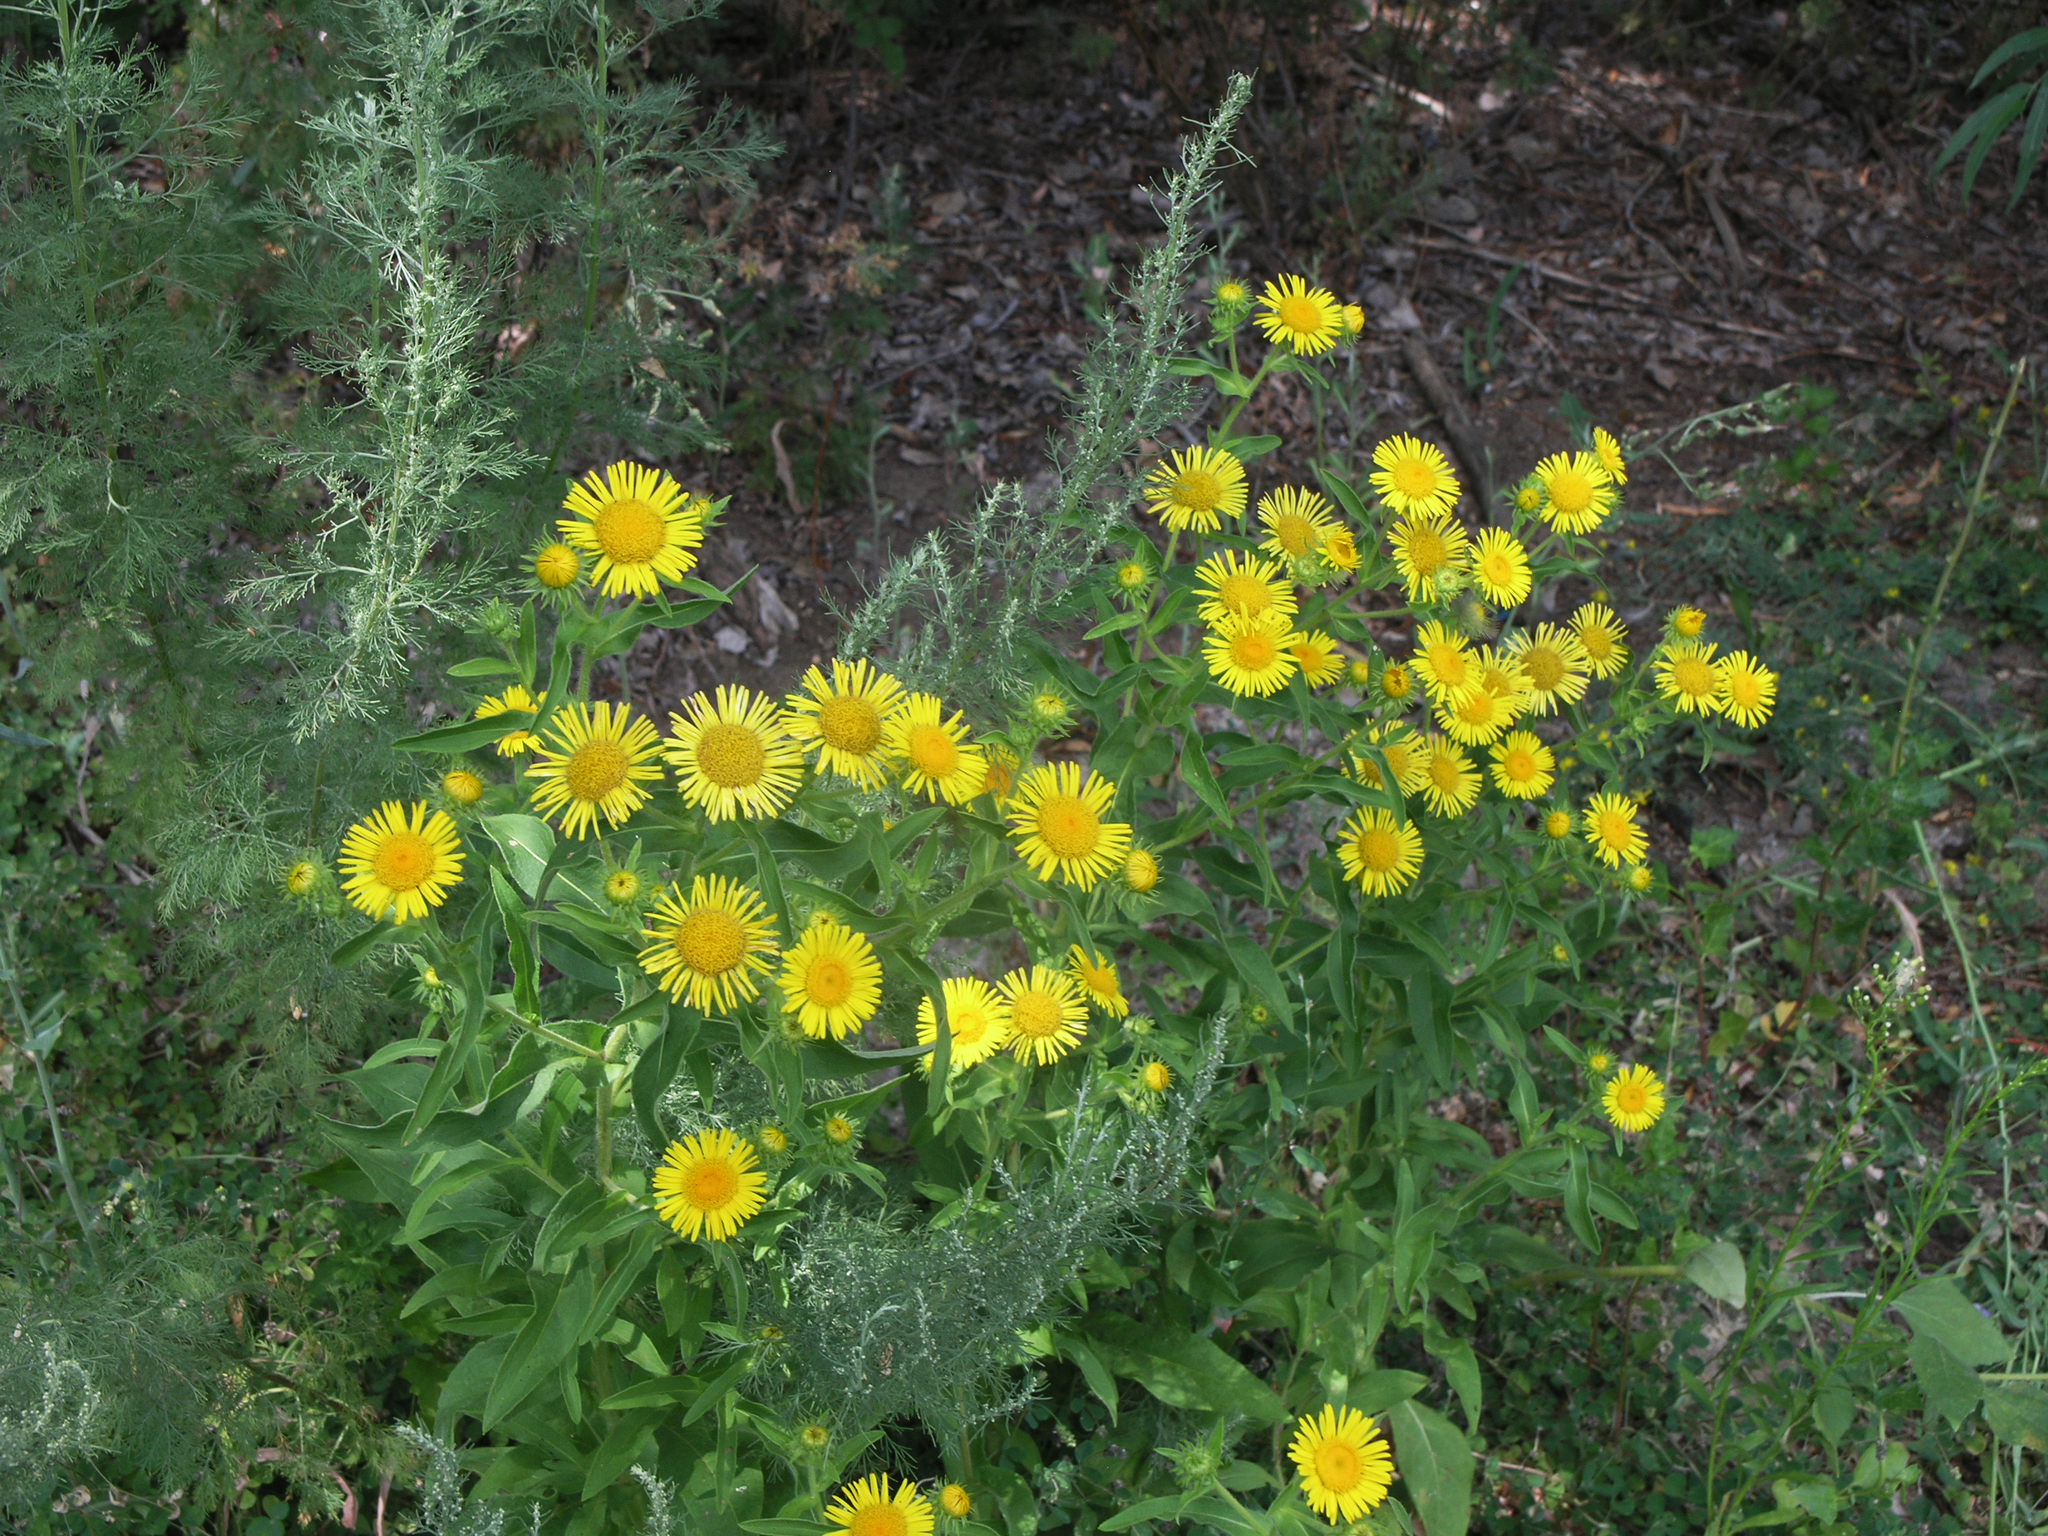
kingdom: Plantae
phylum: Tracheophyta
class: Magnoliopsida
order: Asterales
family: Asteraceae
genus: Pentanema
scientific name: Pentanema britannicum
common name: British elecampane
